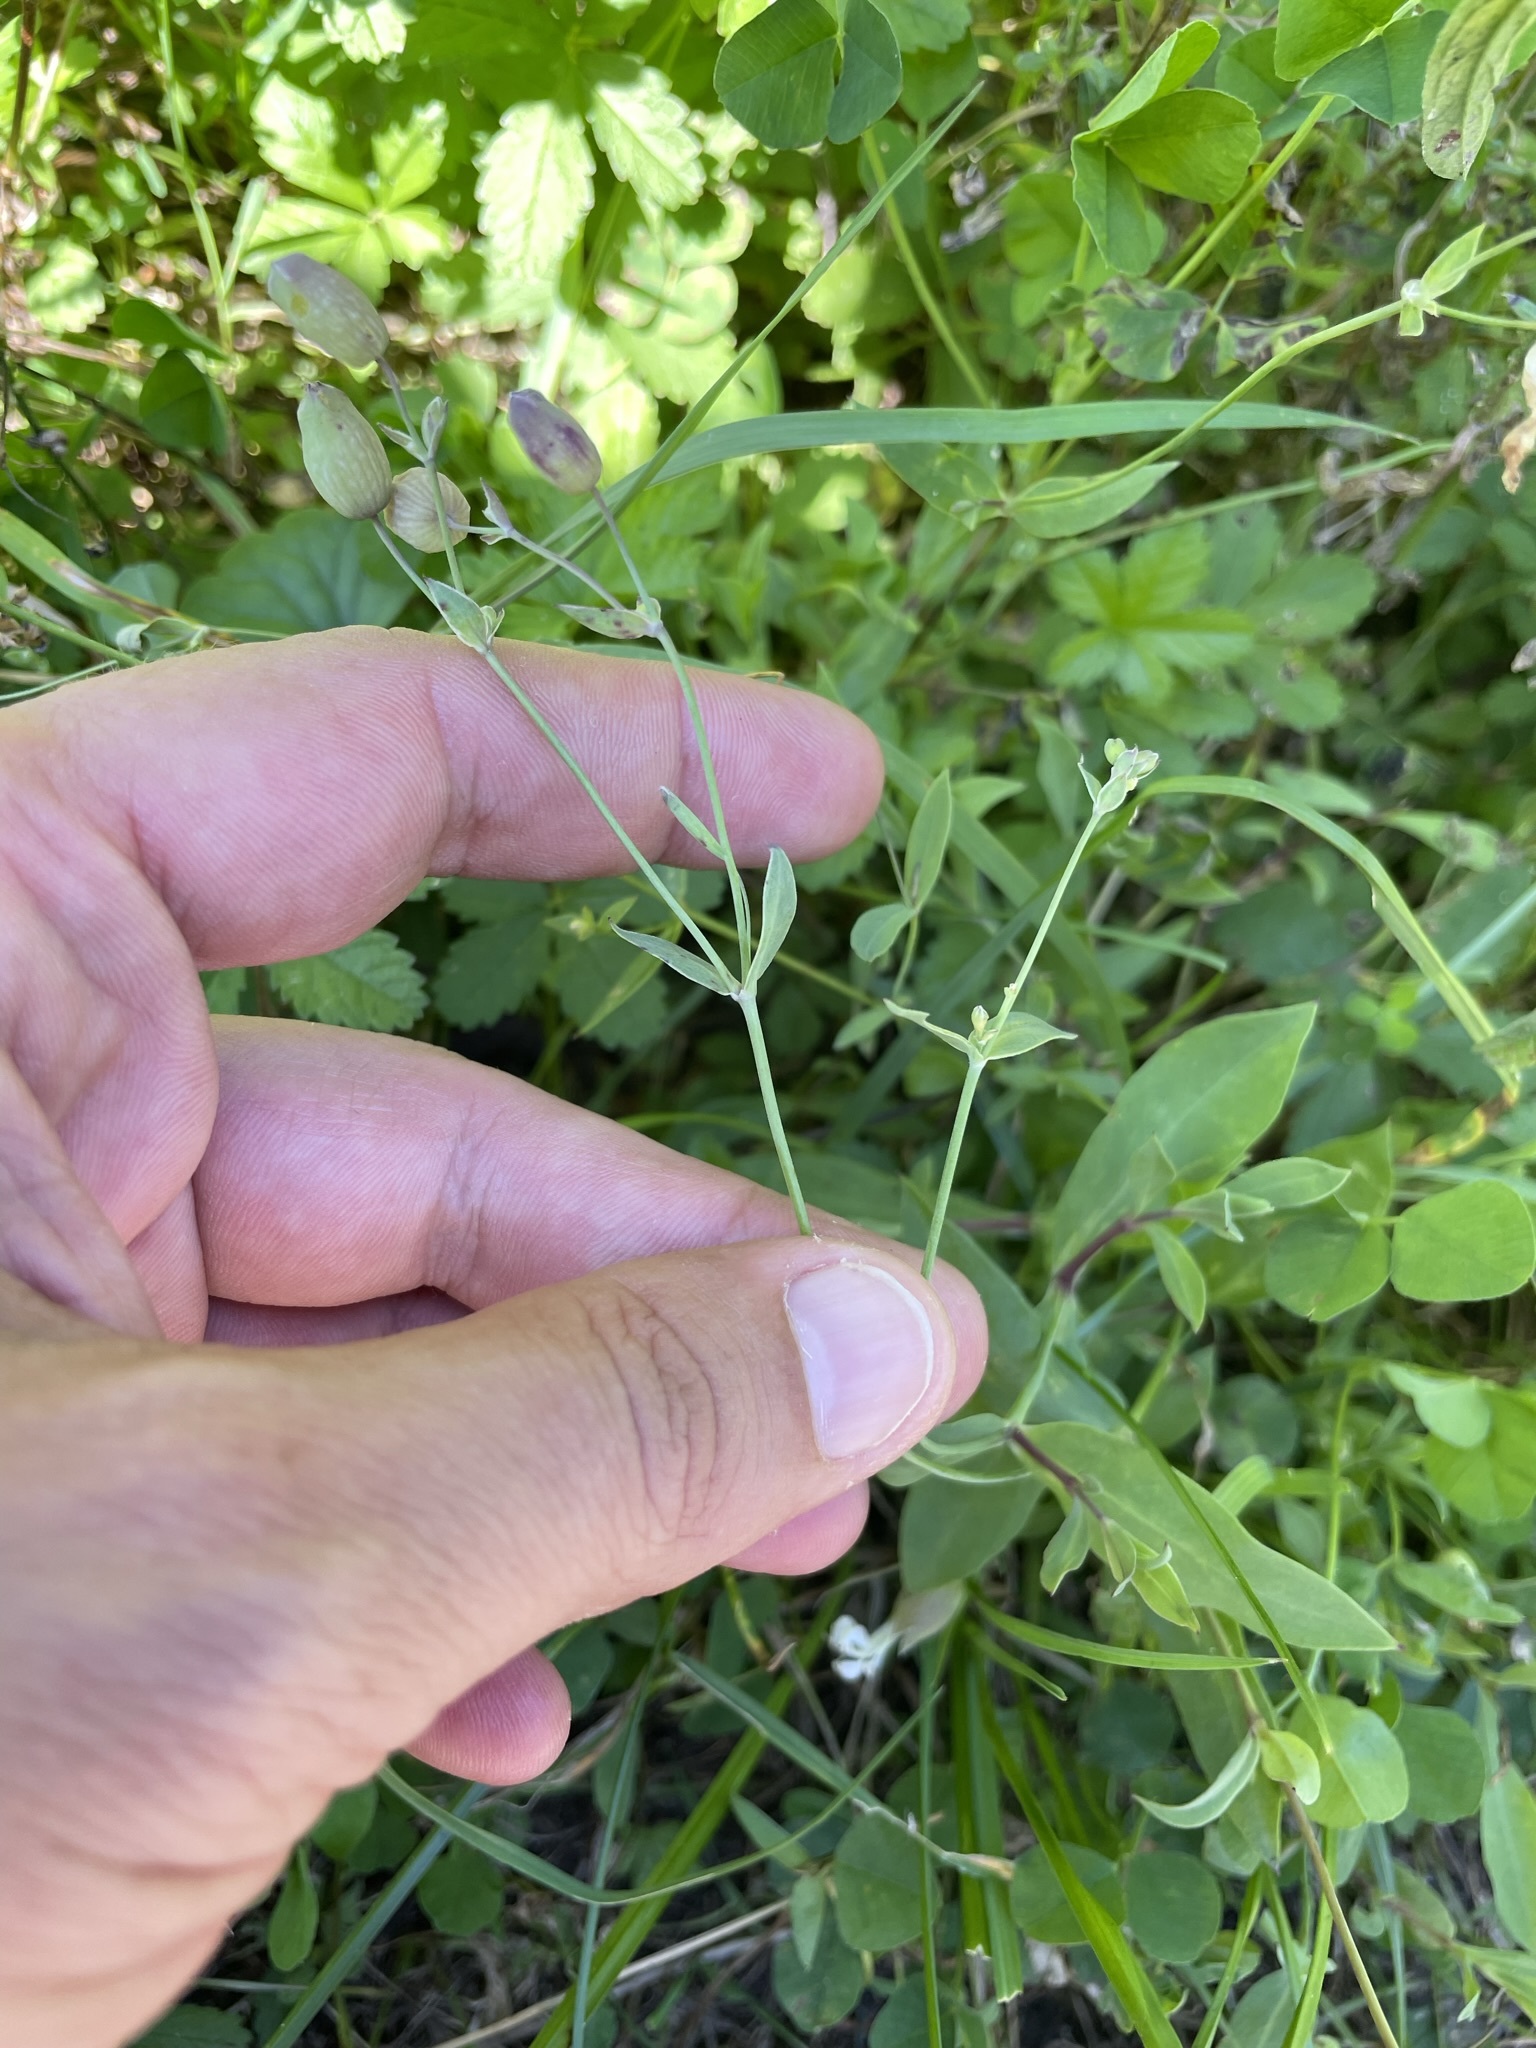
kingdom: Plantae
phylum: Tracheophyta
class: Magnoliopsida
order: Caryophyllales
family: Caryophyllaceae
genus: Silene
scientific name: Silene vulgaris
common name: Bladder campion
